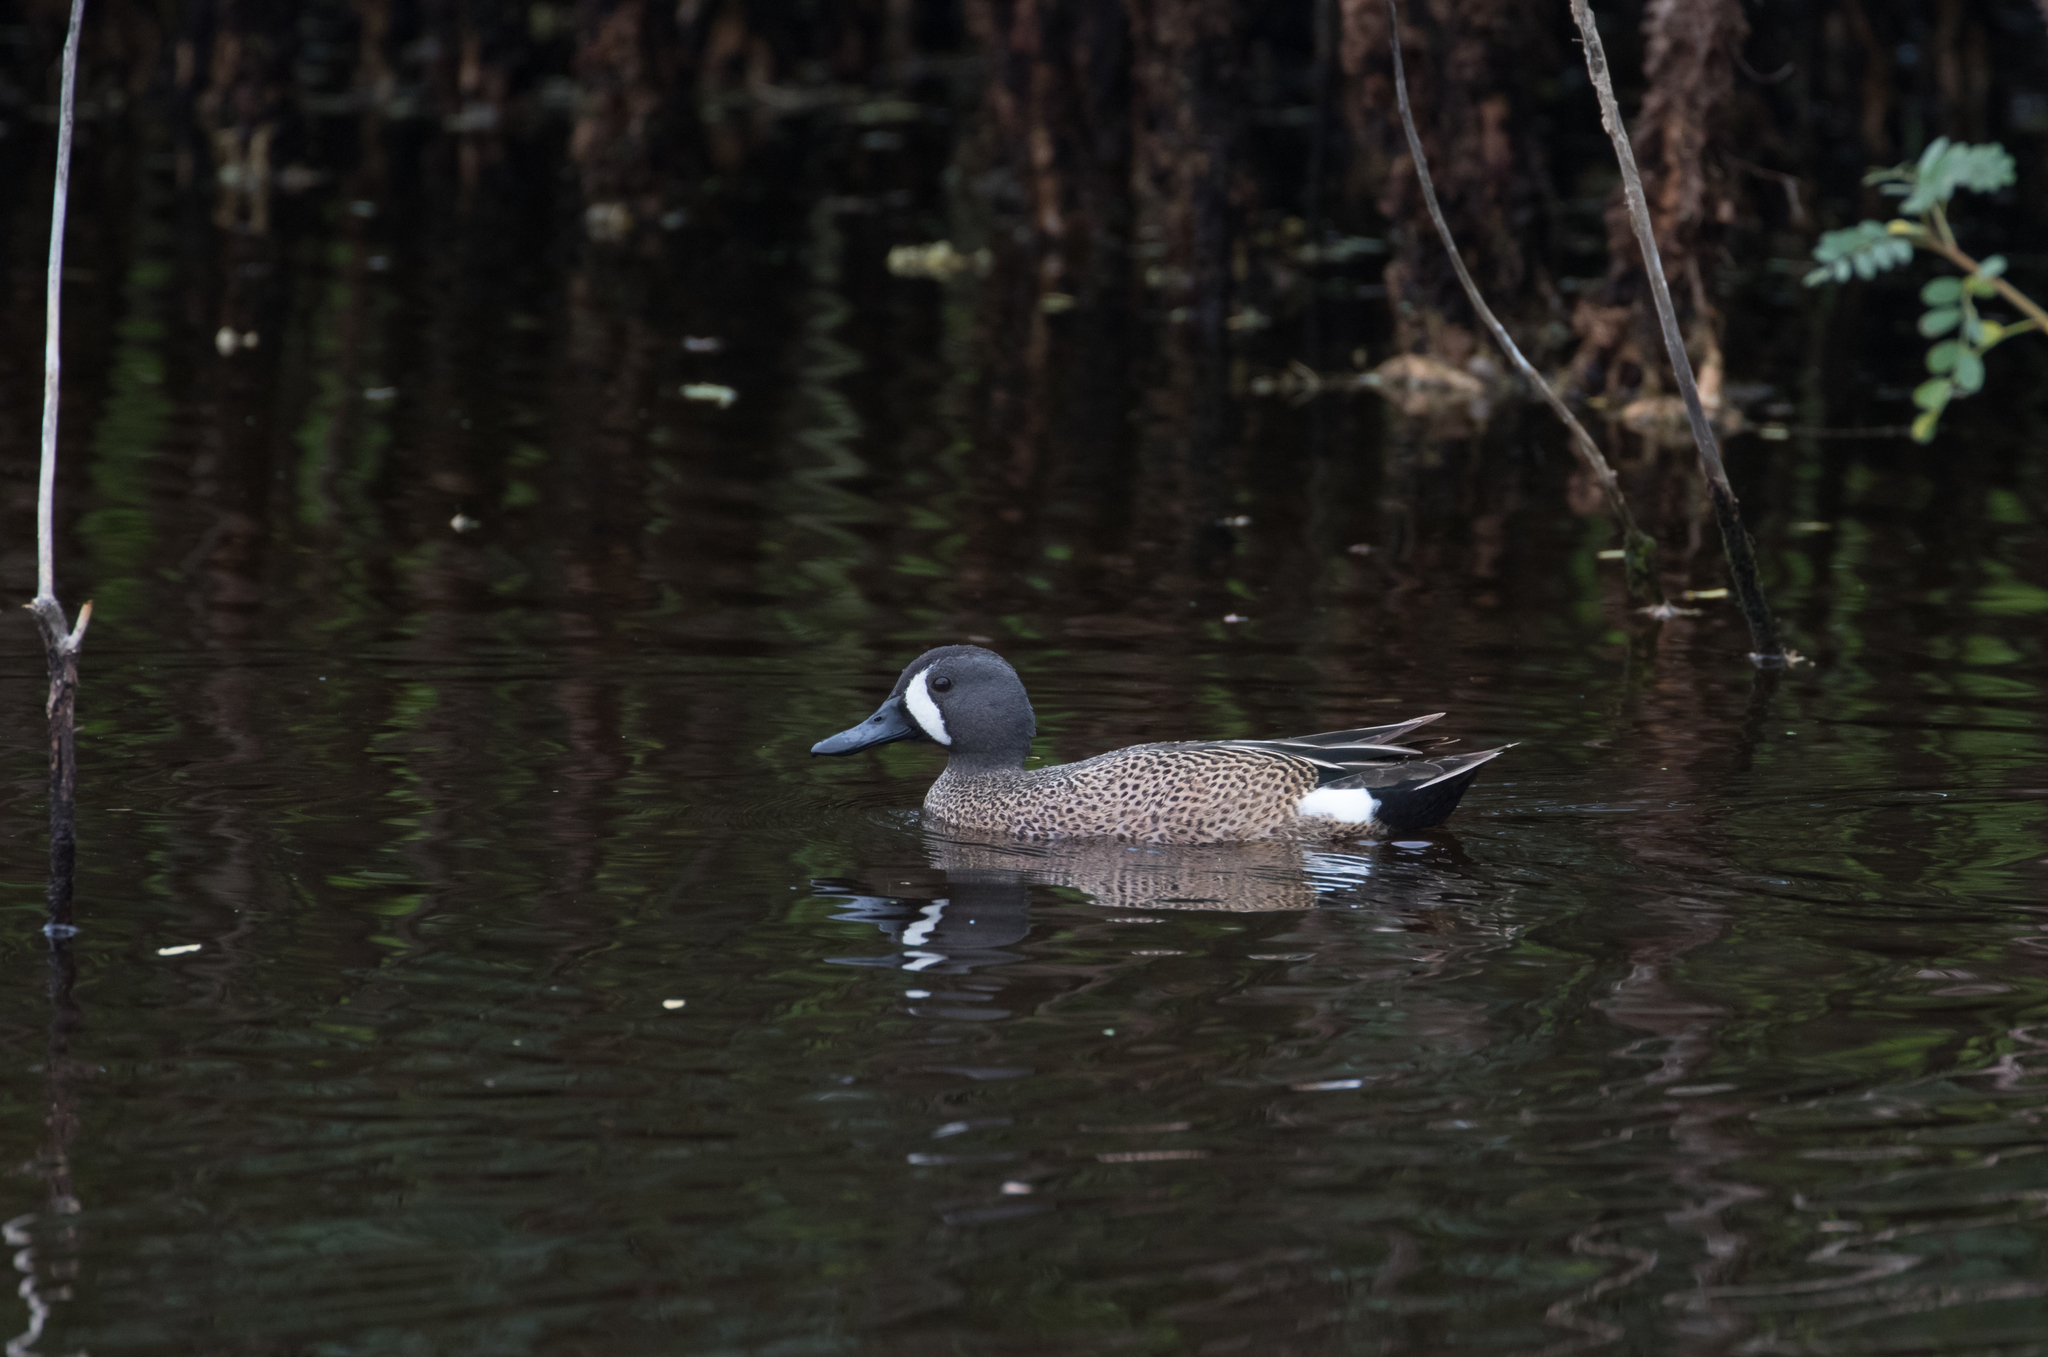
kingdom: Animalia
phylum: Chordata
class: Aves
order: Anseriformes
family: Anatidae
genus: Spatula
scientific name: Spatula discors
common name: Blue-winged teal
